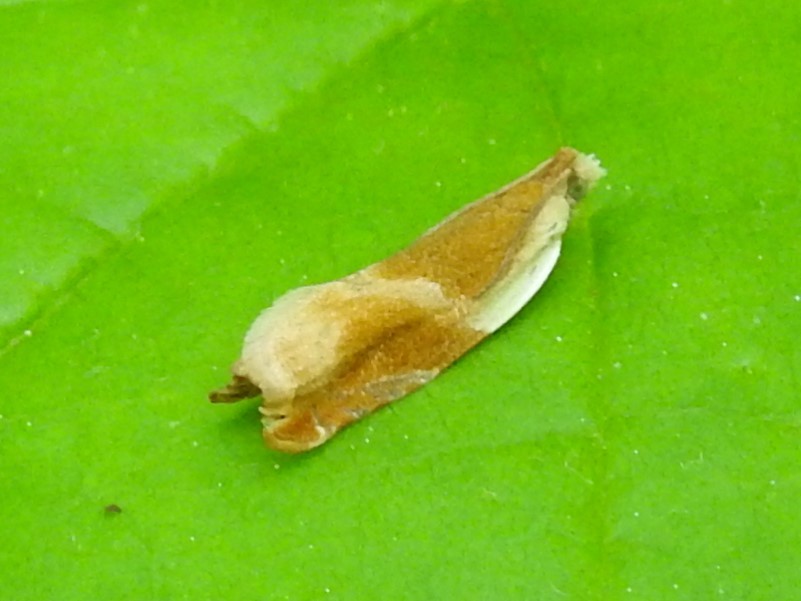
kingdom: Animalia
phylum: Arthropoda
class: Insecta
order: Lepidoptera
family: Tortricidae
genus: Ancylis
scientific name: Ancylis burgessiana
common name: Oak leaffolder moth
